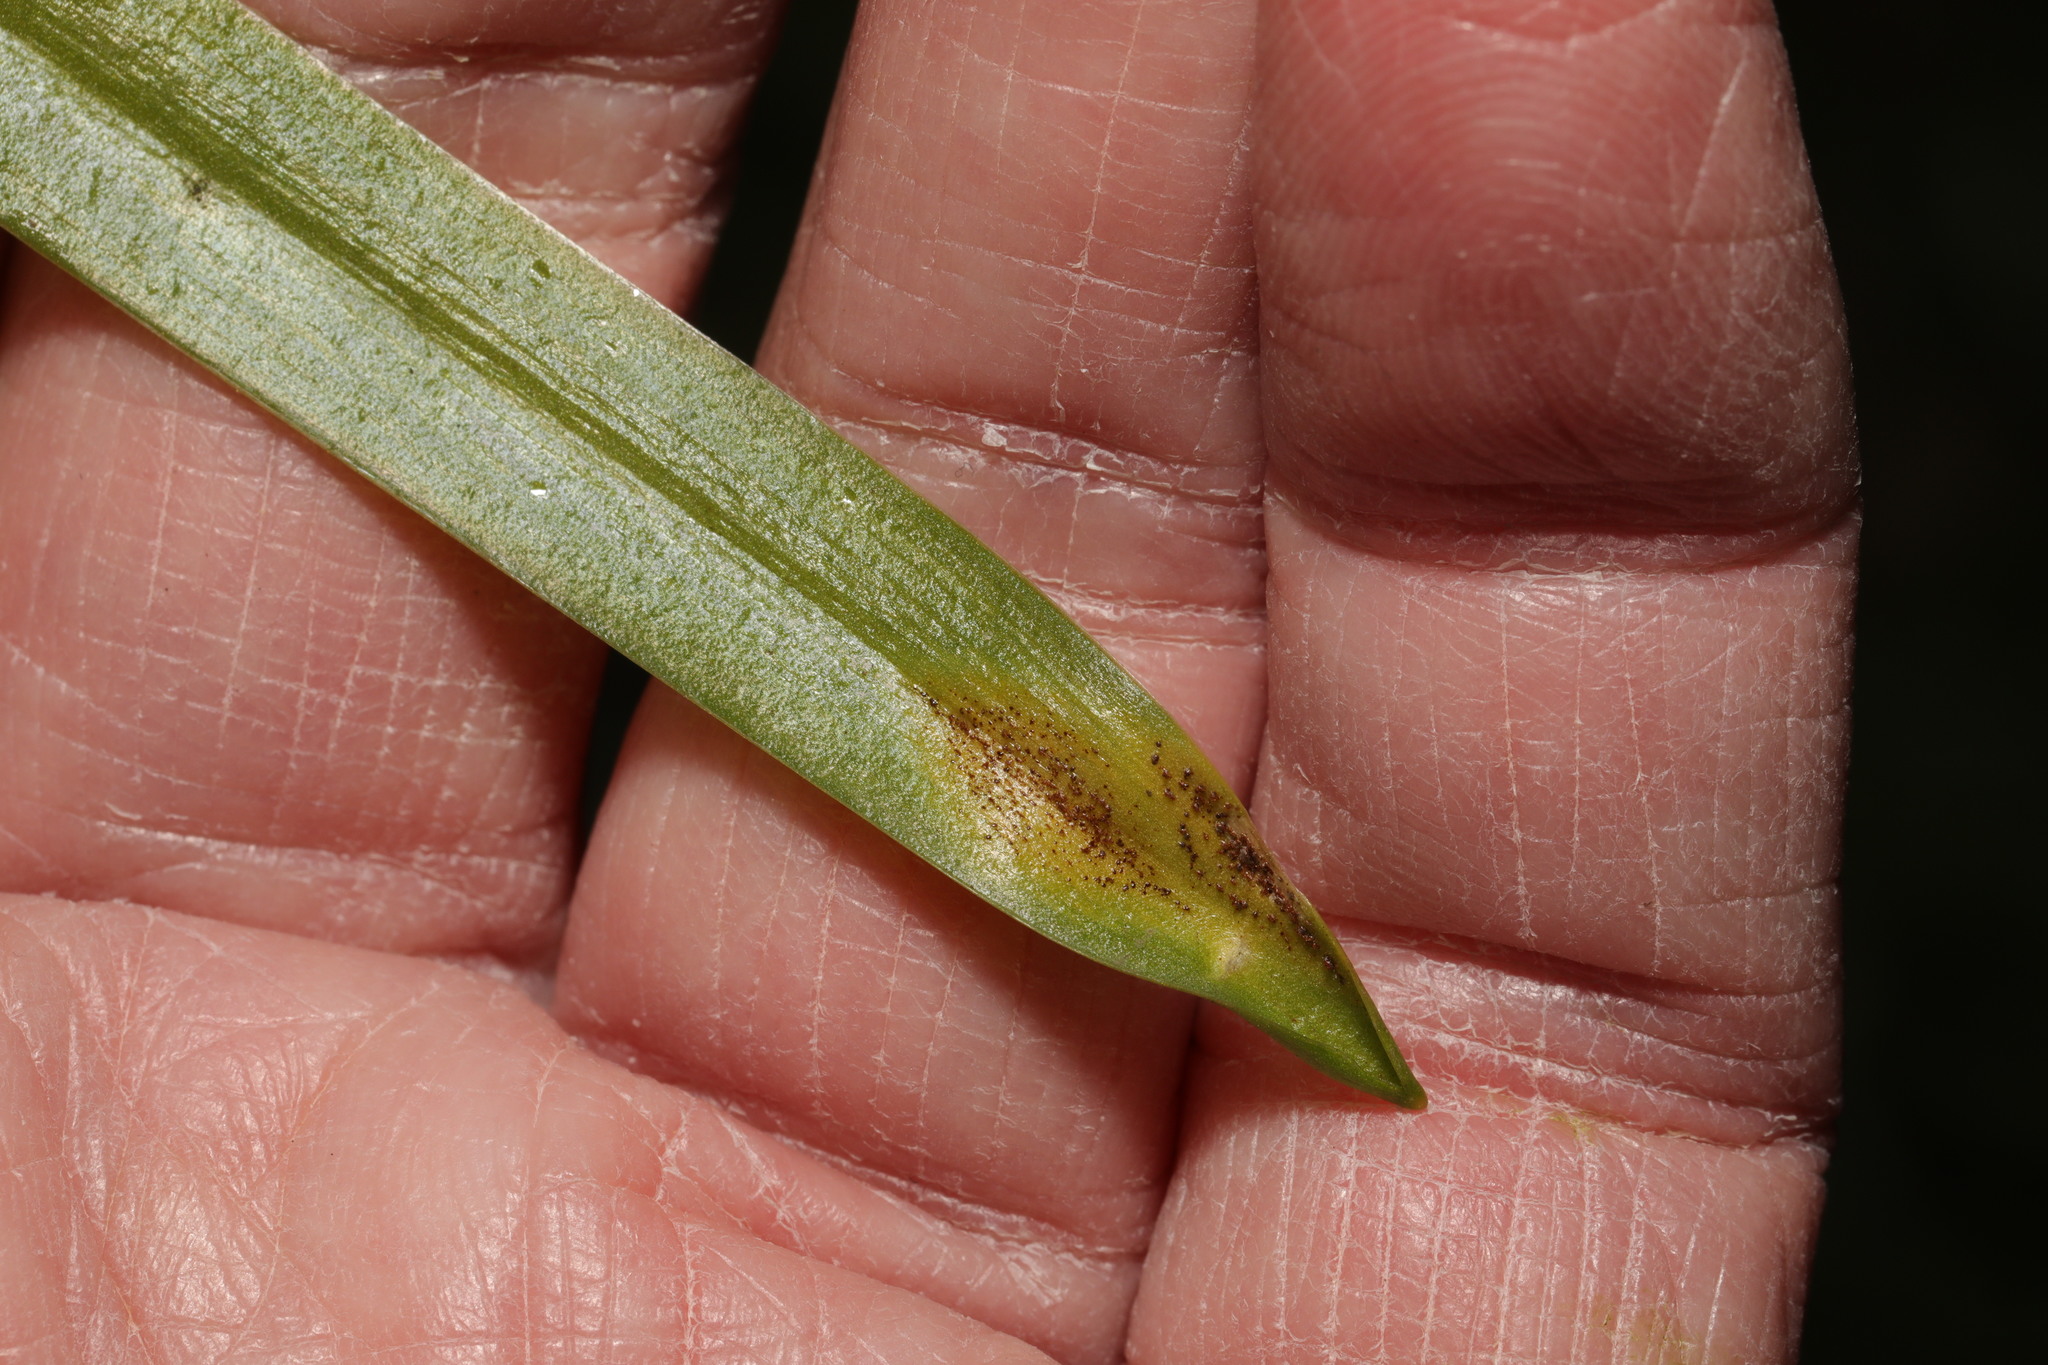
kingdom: Fungi
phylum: Basidiomycota
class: Pucciniomycetes
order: Pucciniales
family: Pucciniaceae
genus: Uromyces
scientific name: Uromyces hyacinthi
